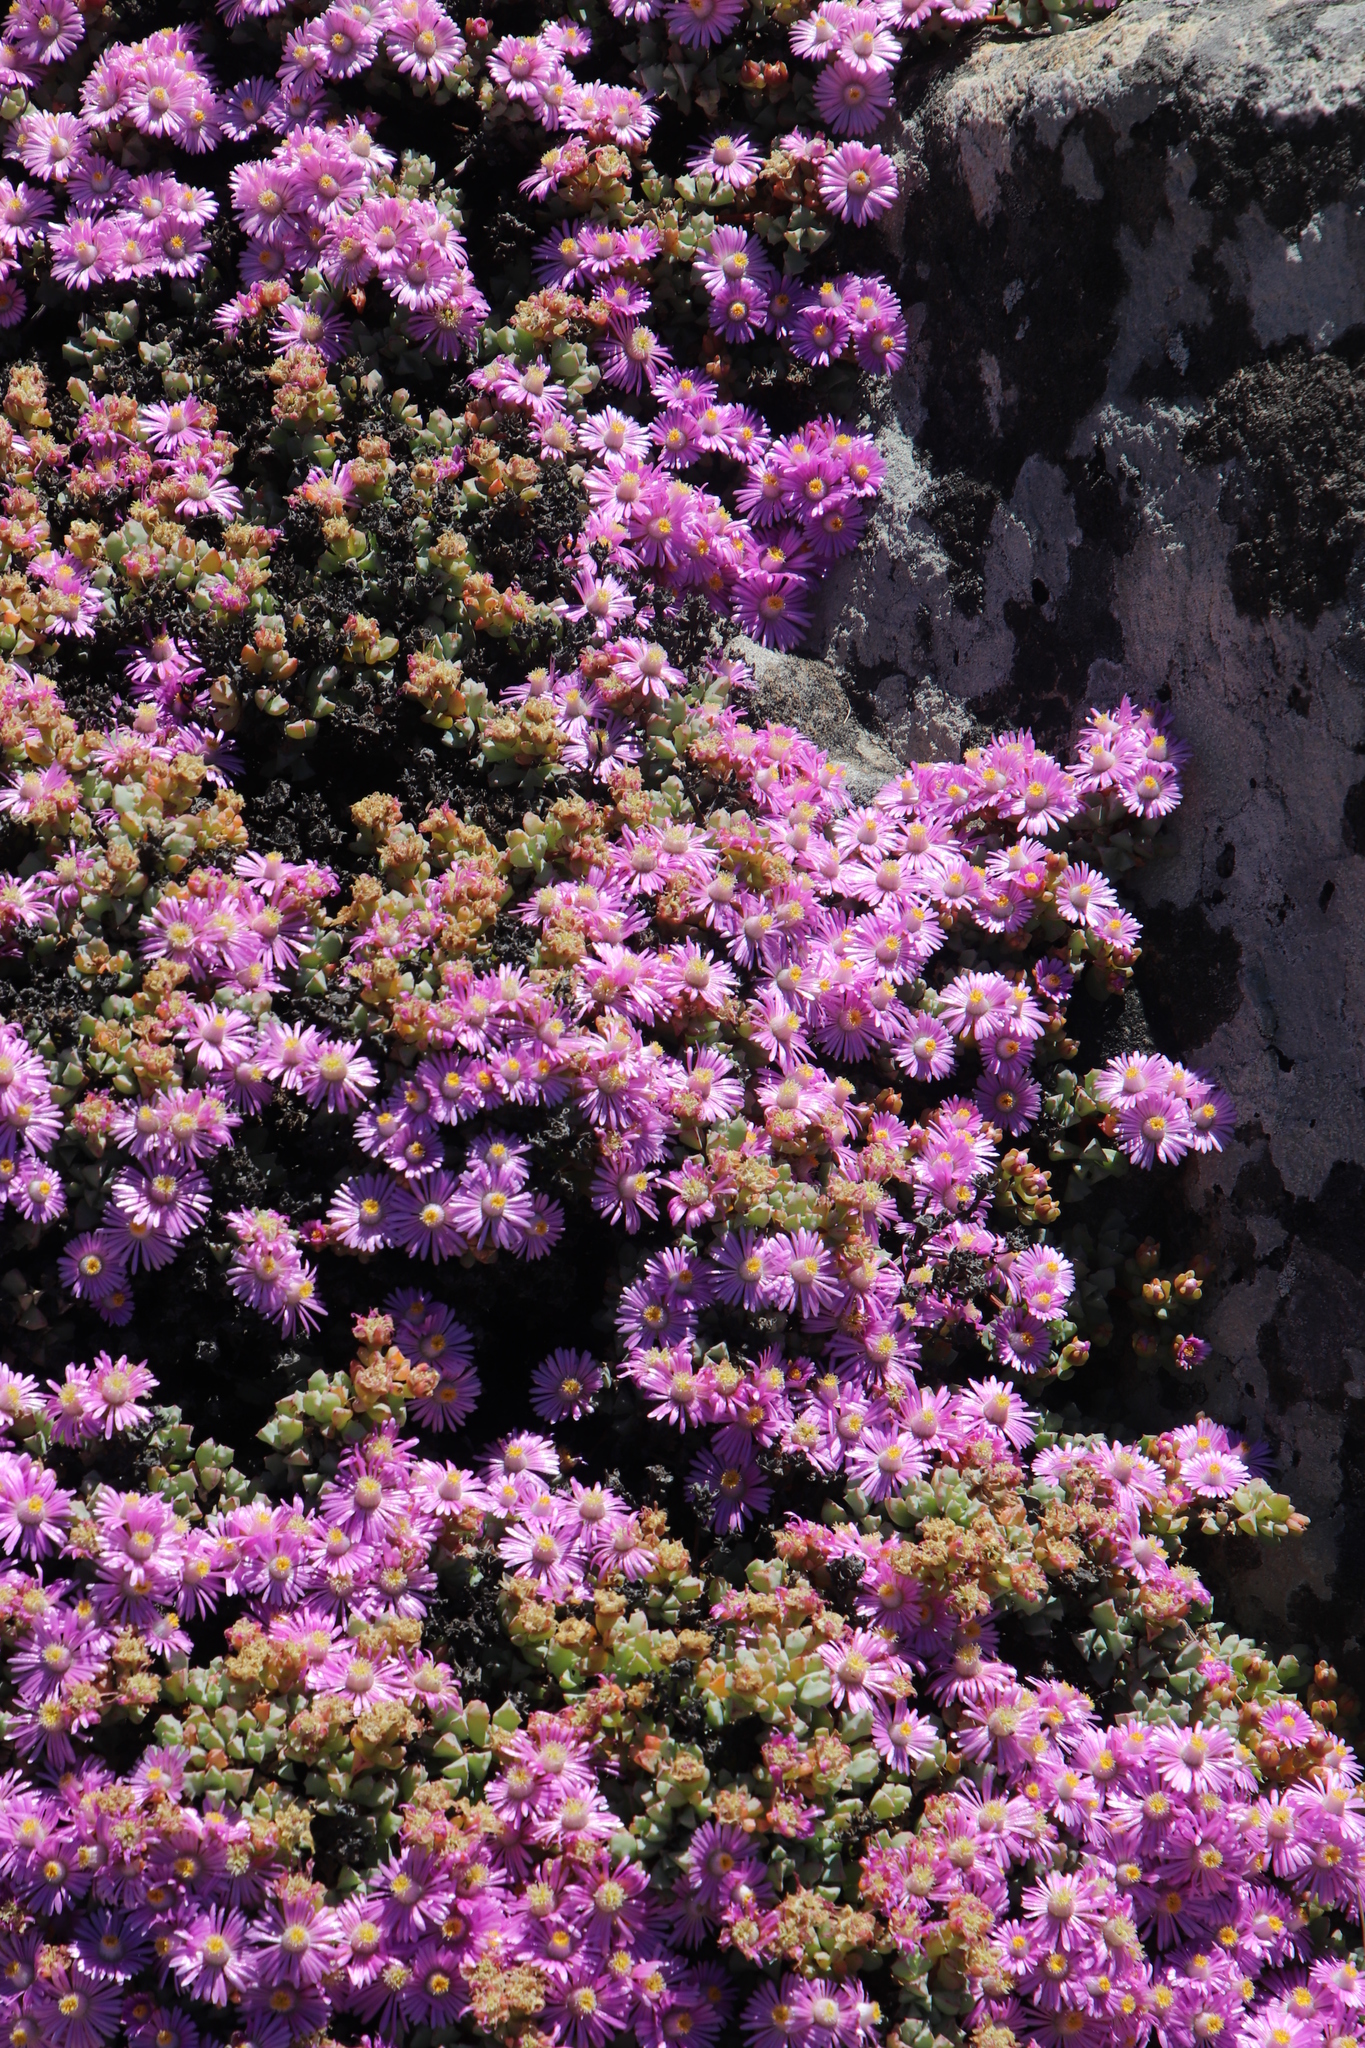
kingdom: Plantae
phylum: Tracheophyta
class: Magnoliopsida
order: Caryophyllales
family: Aizoaceae
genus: Oscularia
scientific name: Oscularia deltoides
